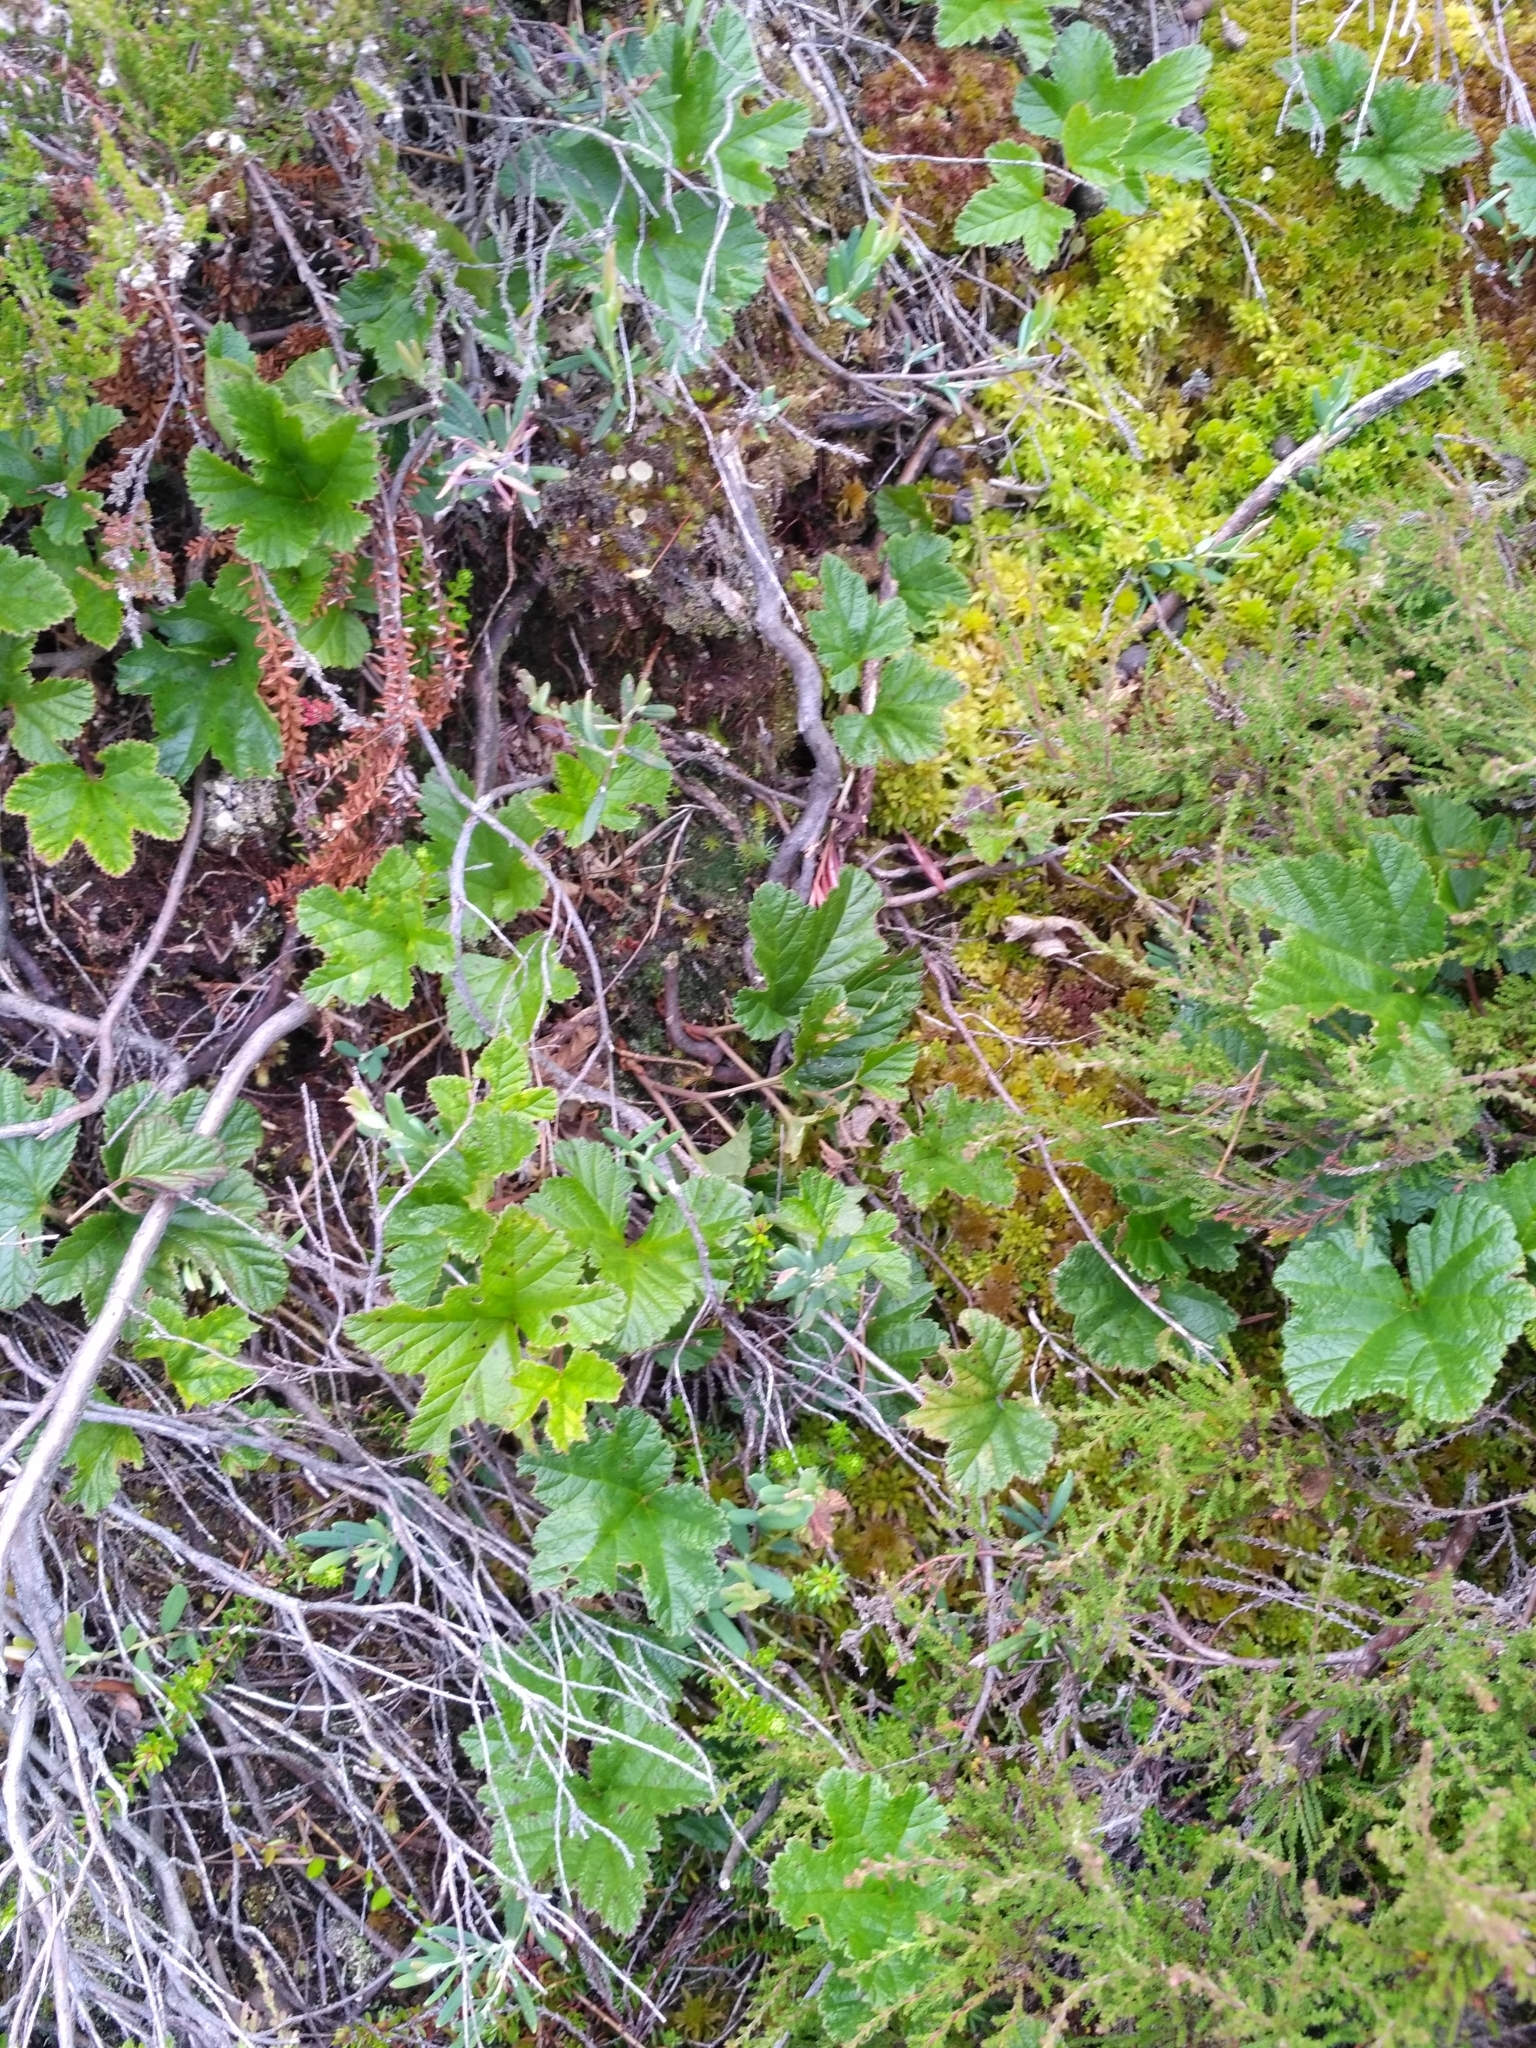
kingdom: Plantae
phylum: Tracheophyta
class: Magnoliopsida
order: Rosales
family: Rosaceae
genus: Rubus
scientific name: Rubus chamaemorus
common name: Cloudberry
